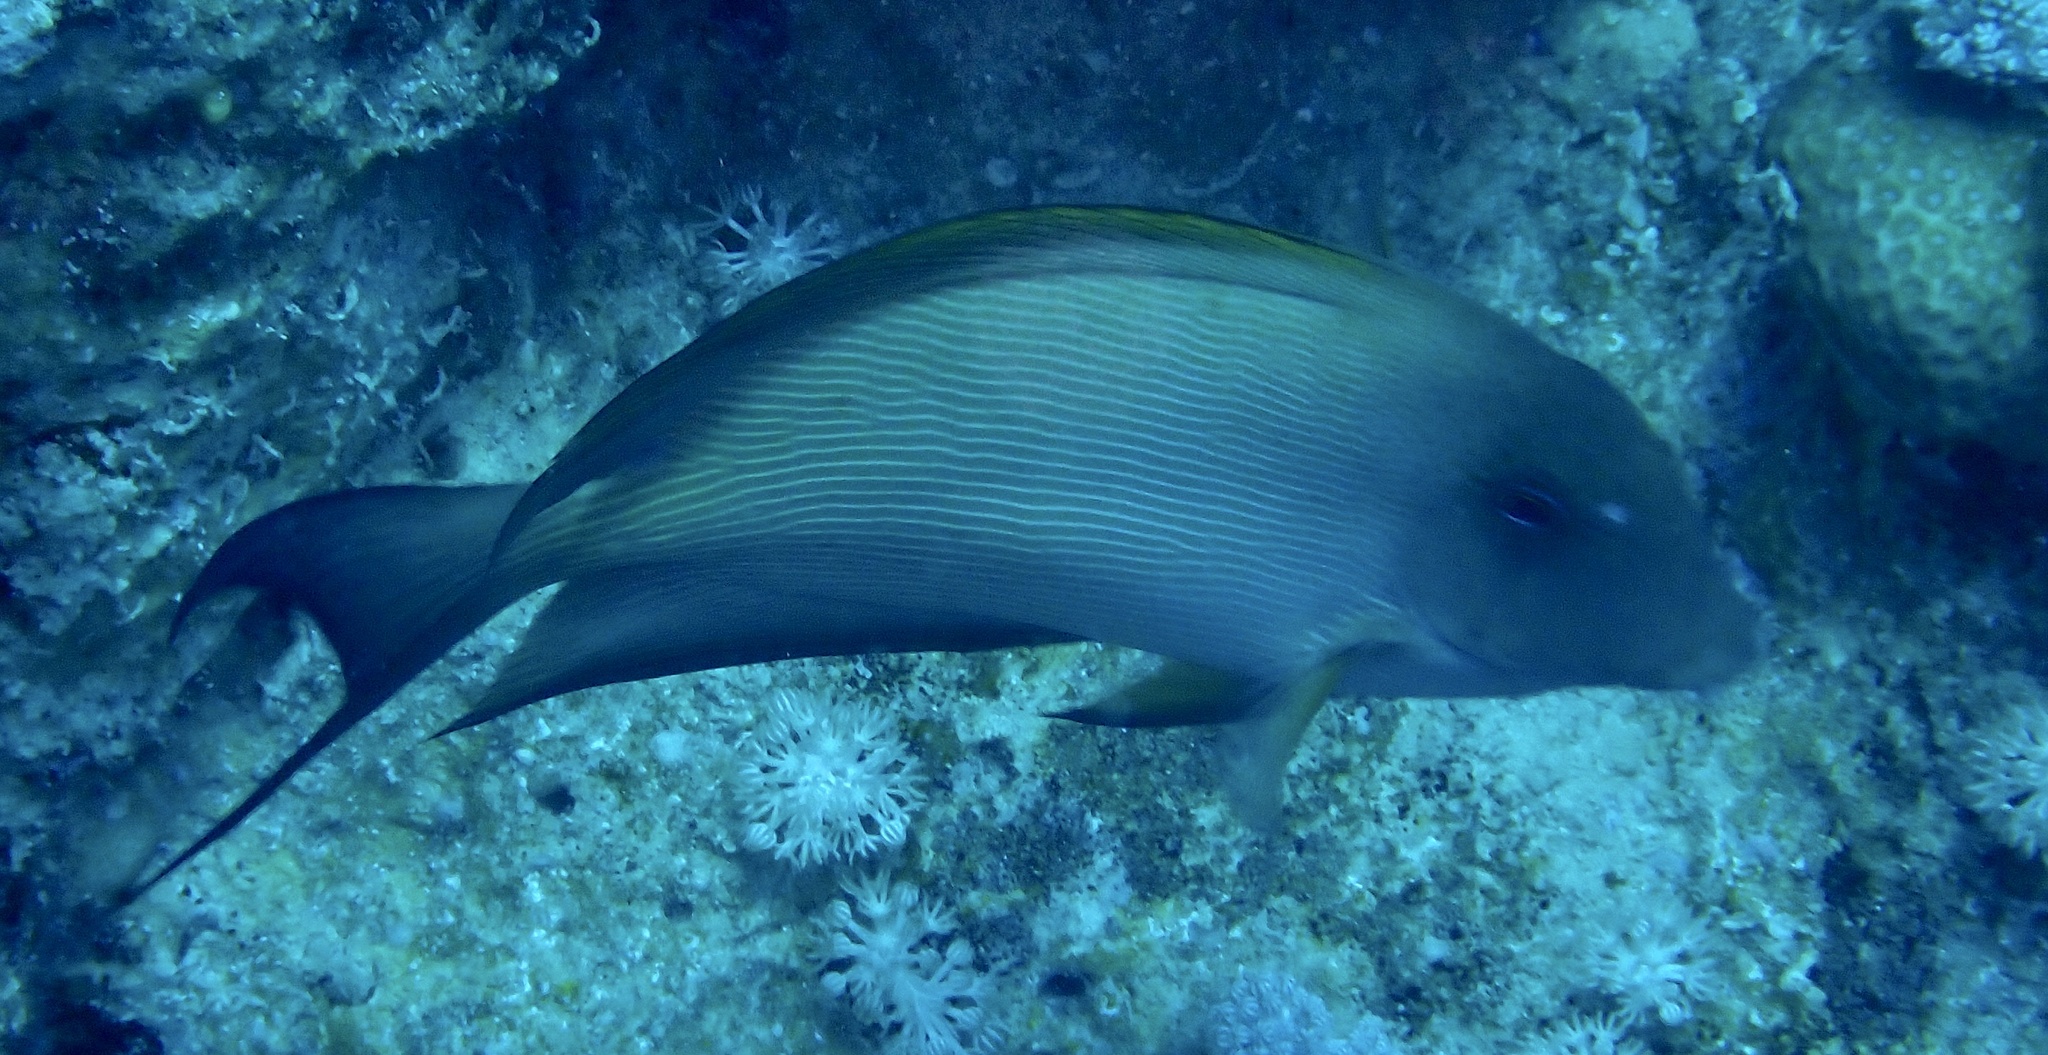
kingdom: Animalia
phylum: Chordata
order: Perciformes
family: Acanthuridae
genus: Ctenochaetus
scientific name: Ctenochaetus striatus
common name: Bristle-toothed surgeonfish
